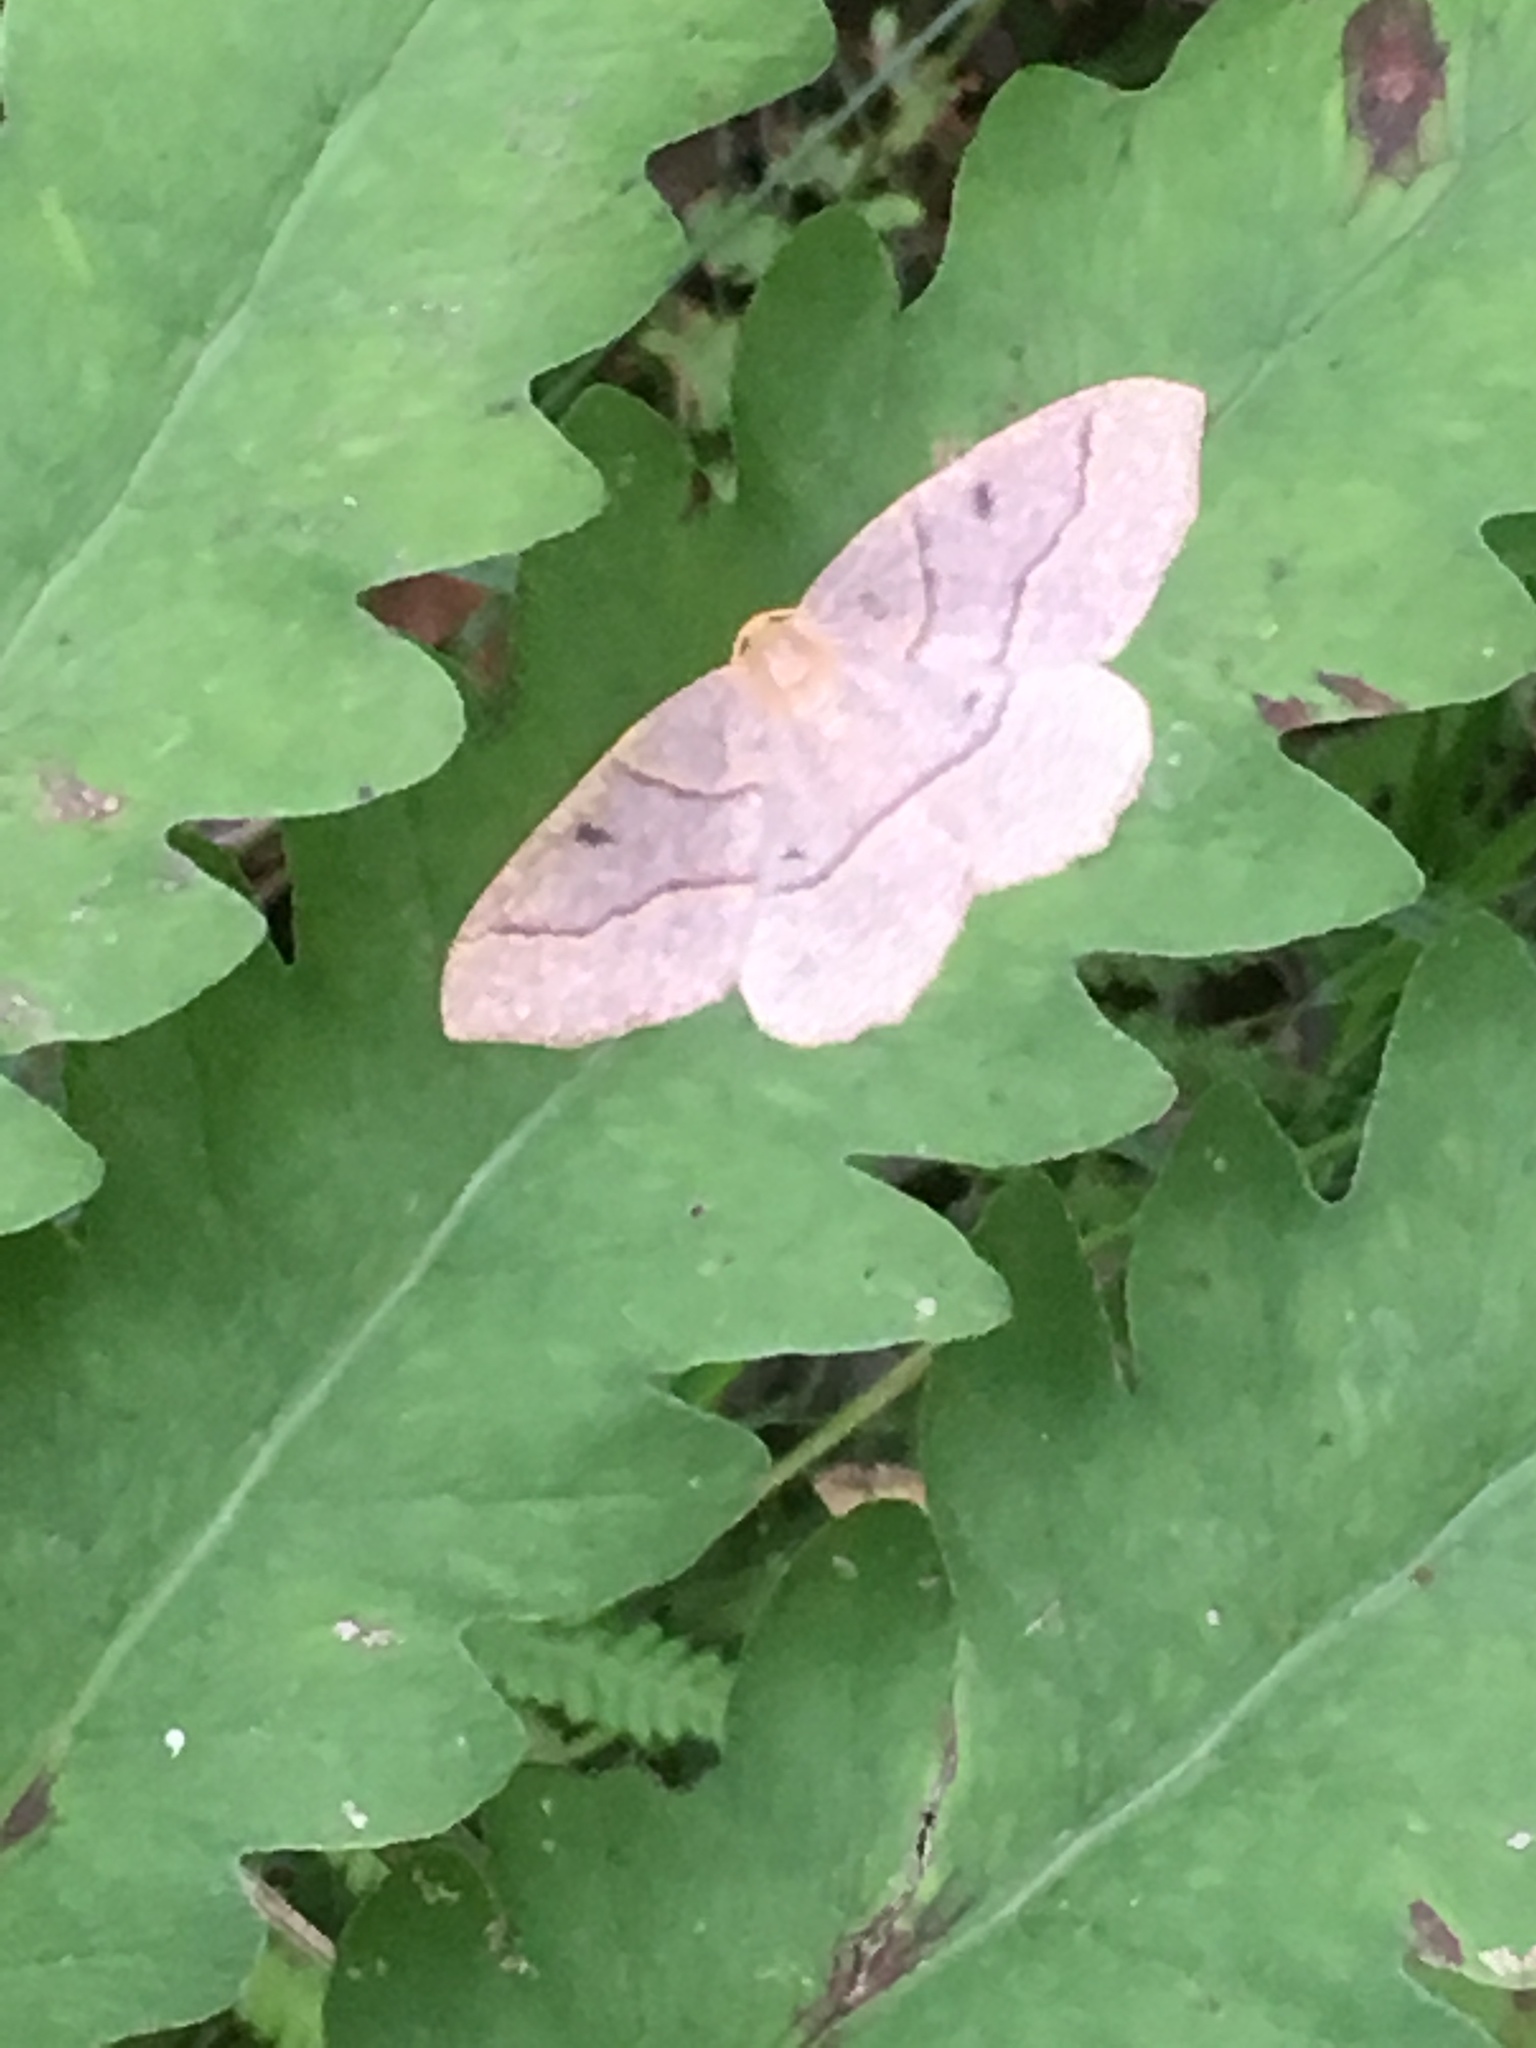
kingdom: Animalia
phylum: Arthropoda
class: Insecta
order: Lepidoptera
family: Geometridae
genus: Lambdina
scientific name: Lambdina fiscellaria
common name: Hemlock looper
